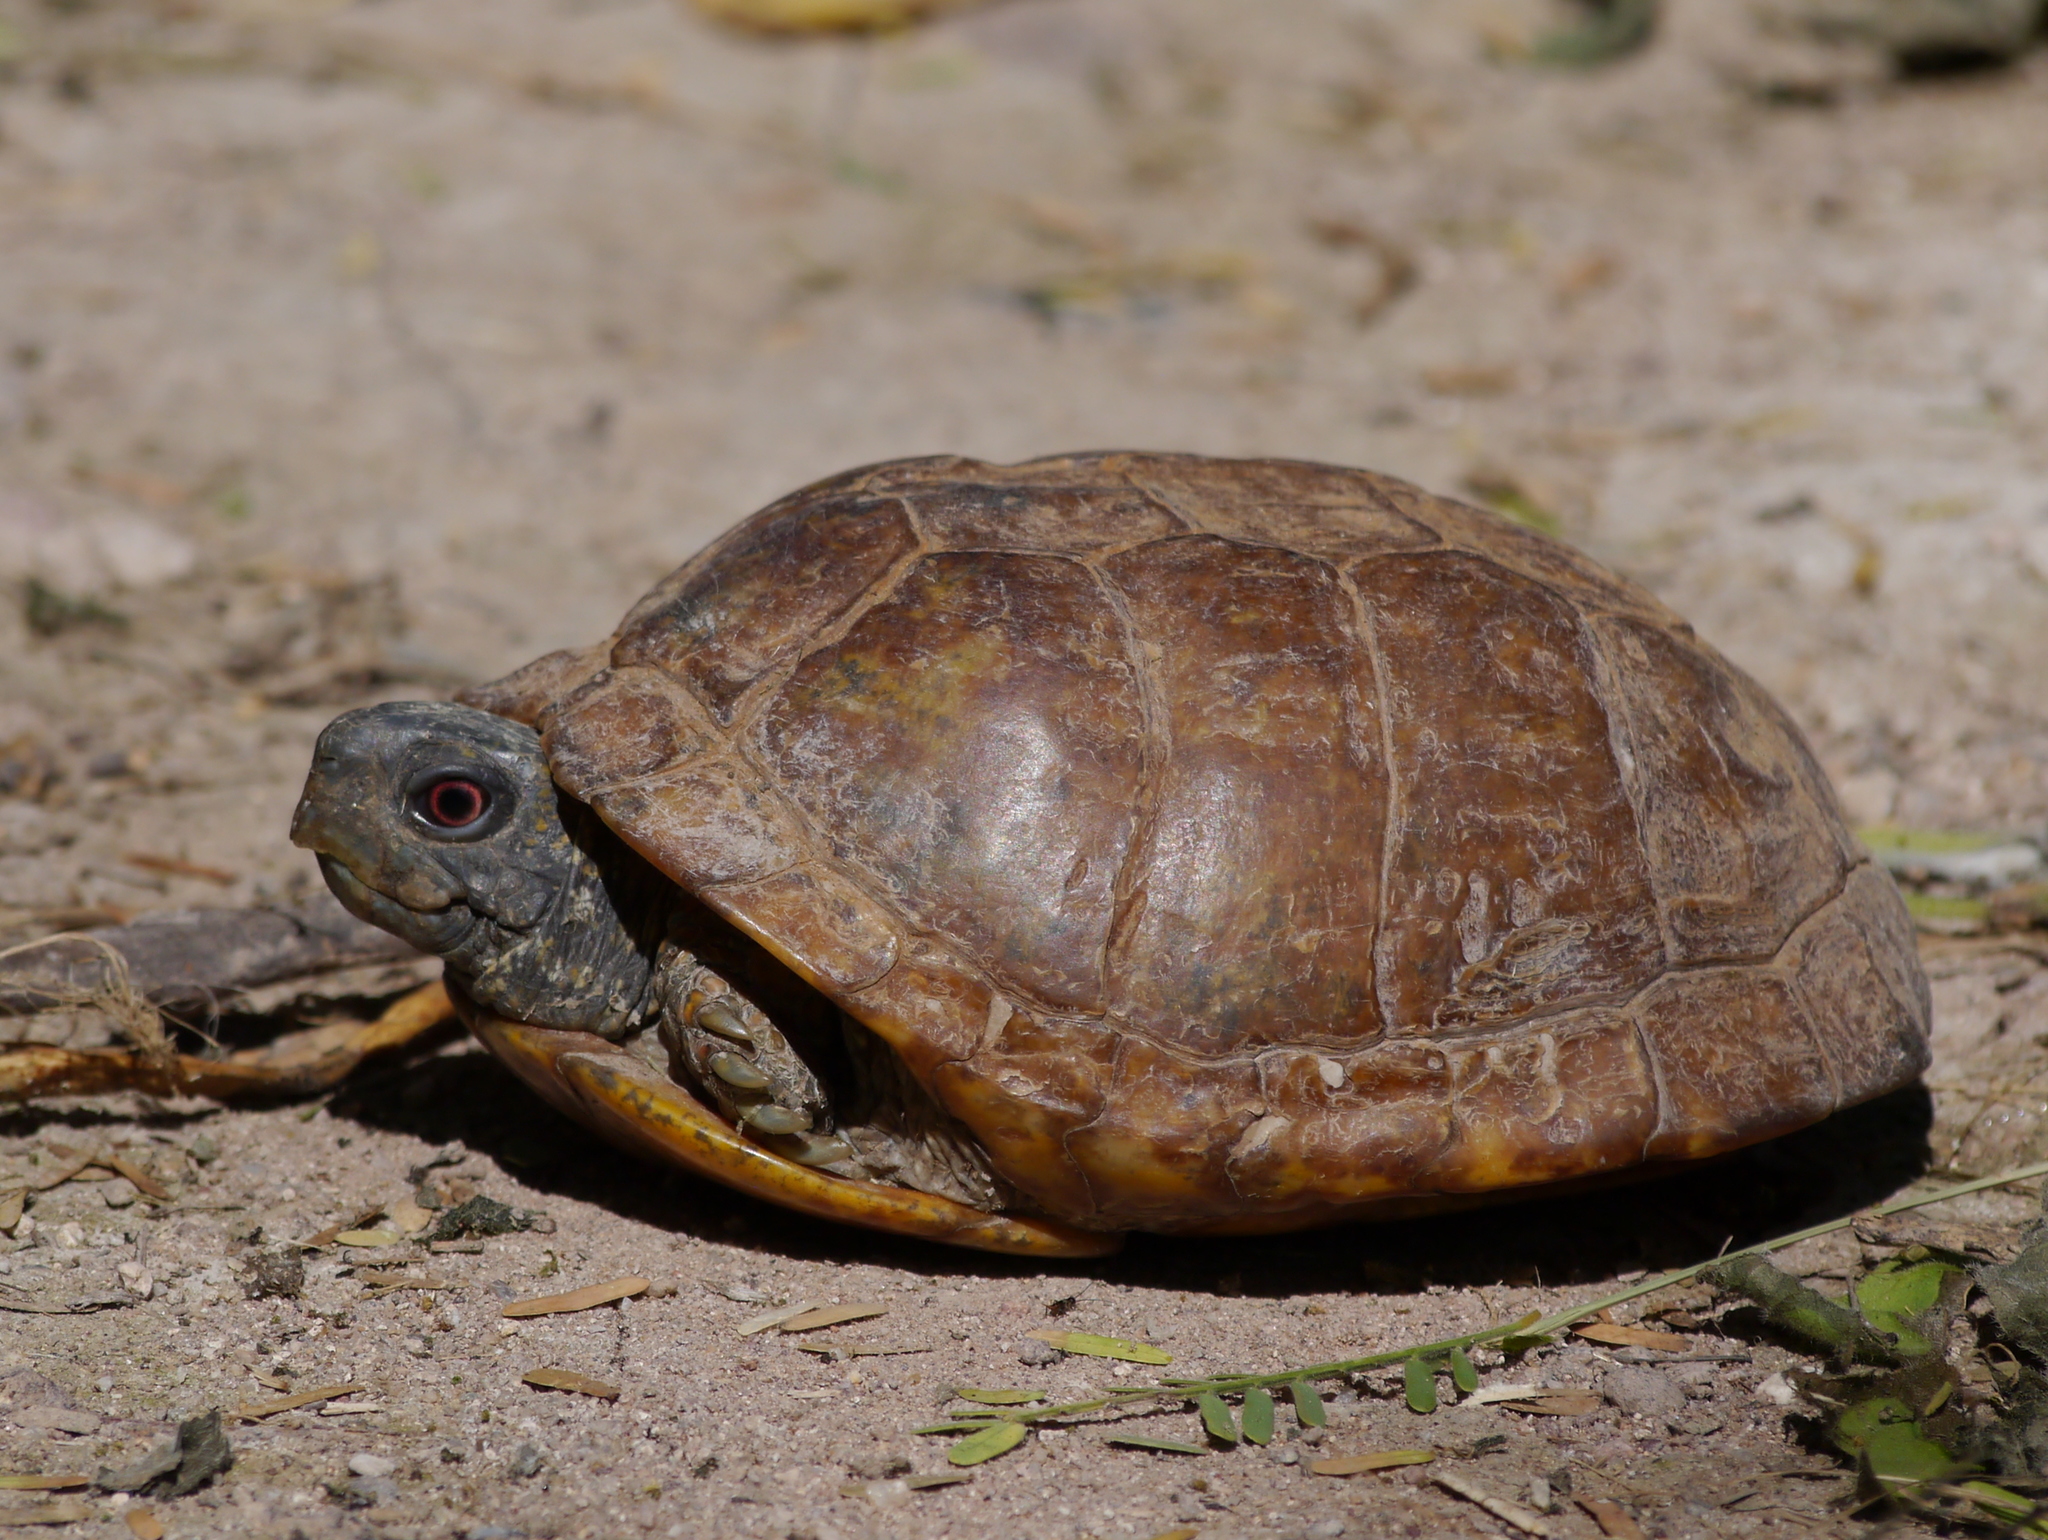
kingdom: Animalia
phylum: Chordata
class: Testudines
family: Emydidae
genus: Terrapene
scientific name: Terrapene ornata
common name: Western box turtle
